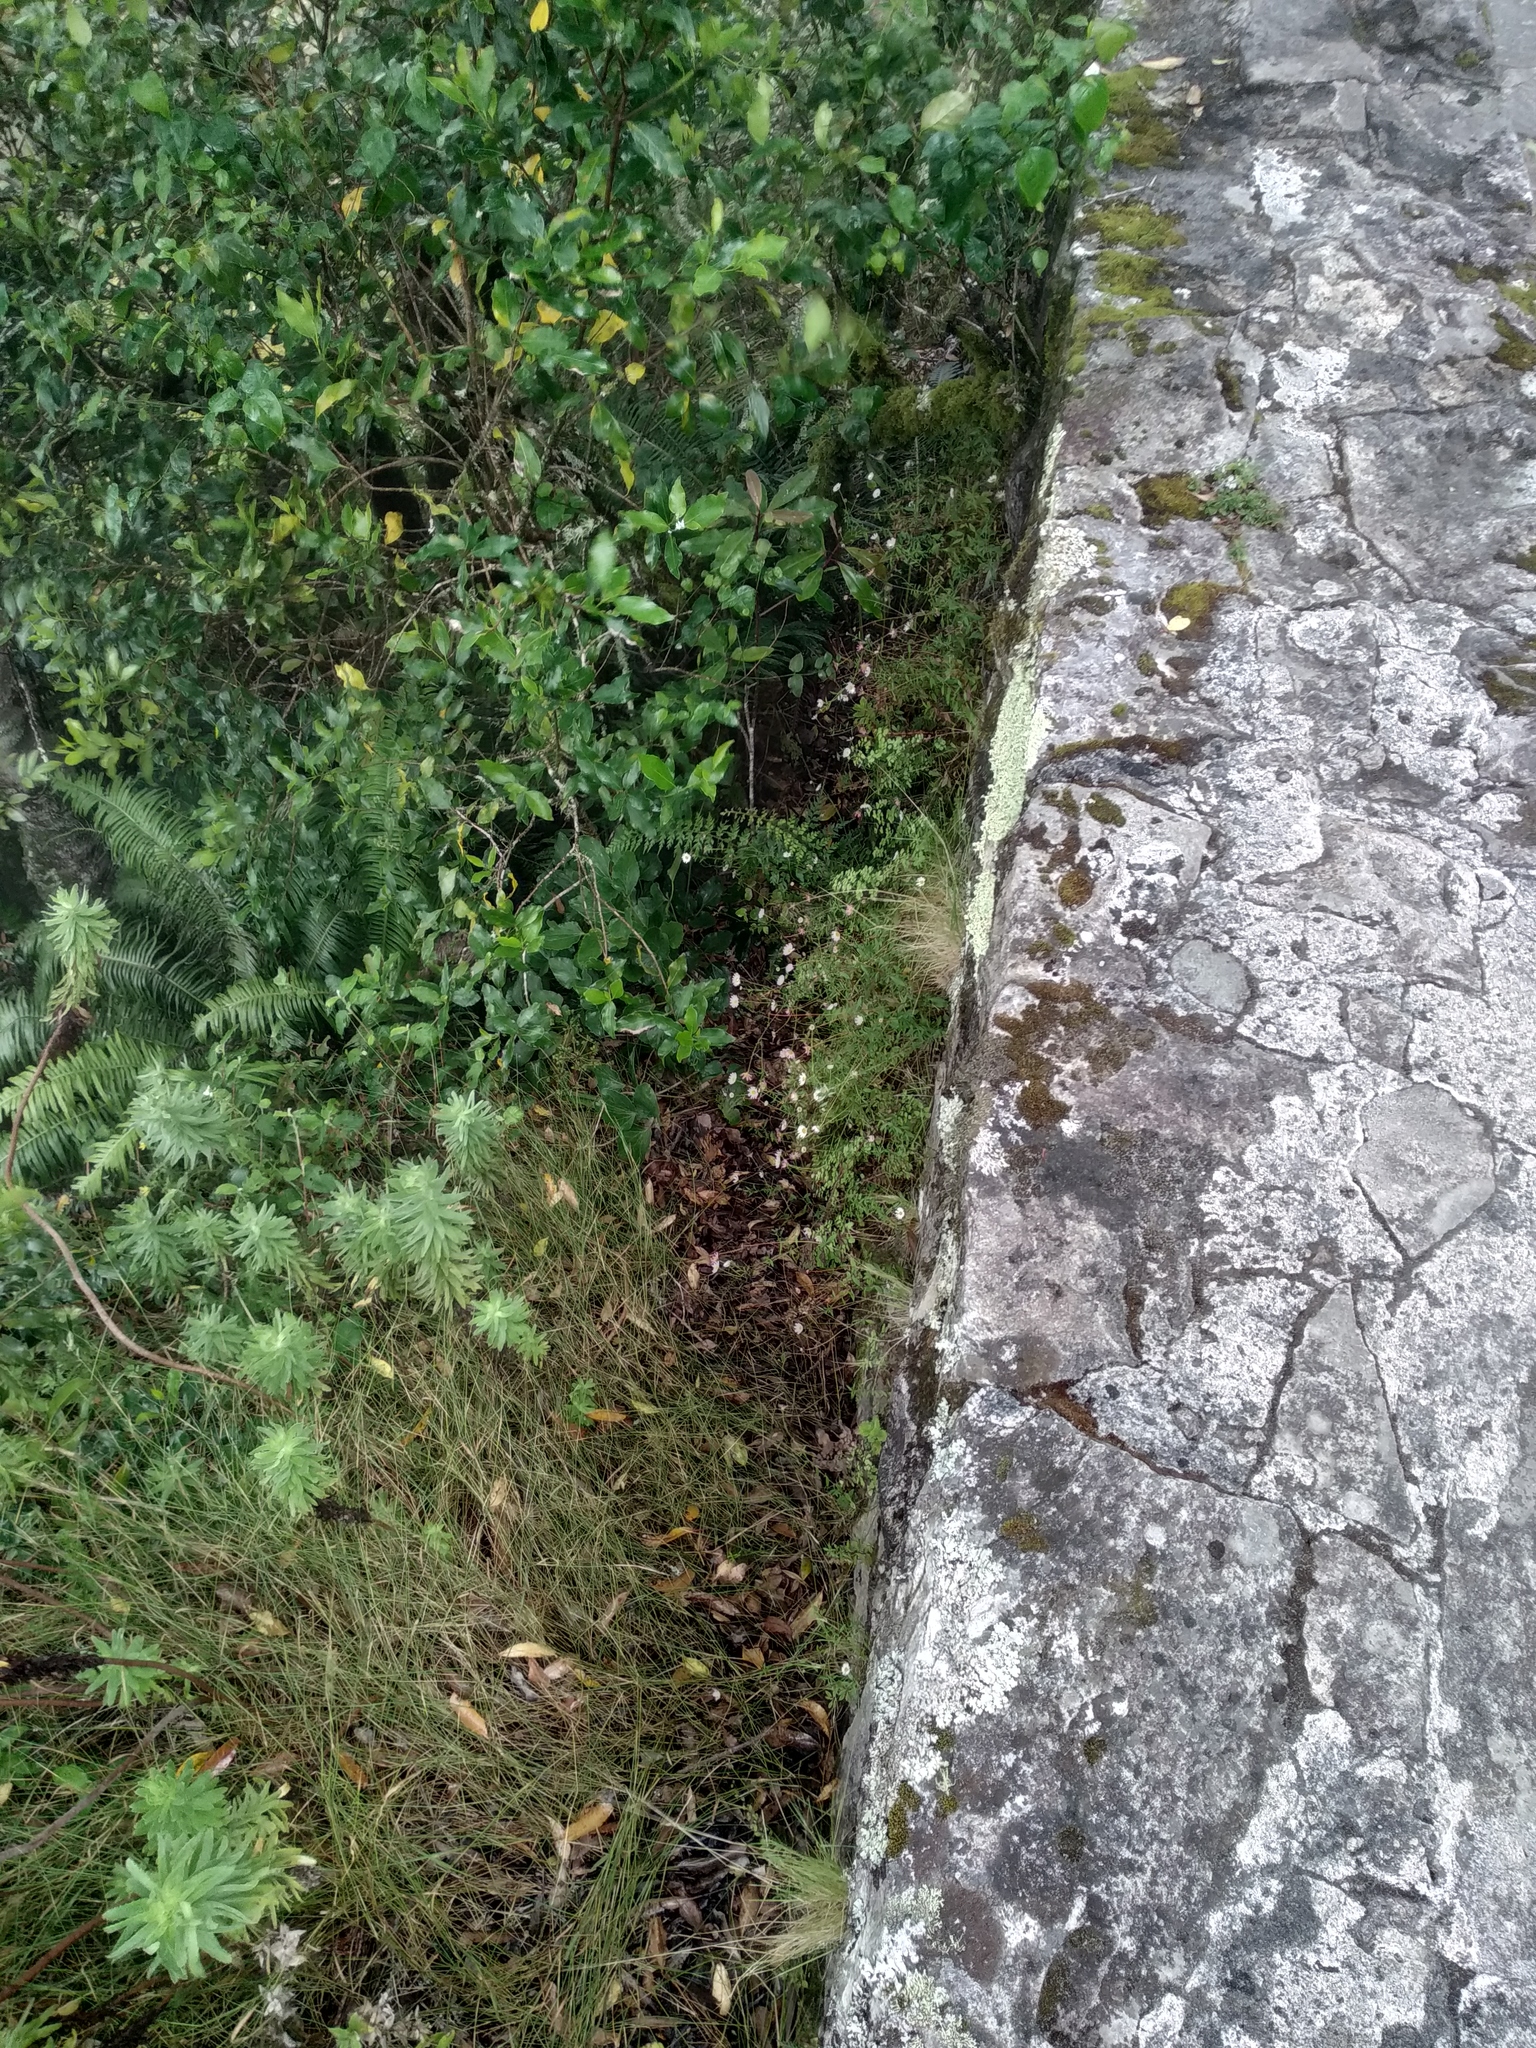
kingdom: Plantae
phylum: Tracheophyta
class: Magnoliopsida
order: Asterales
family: Asteraceae
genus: Erigeron
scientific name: Erigeron karvinskianus
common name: Mexican fleabane
